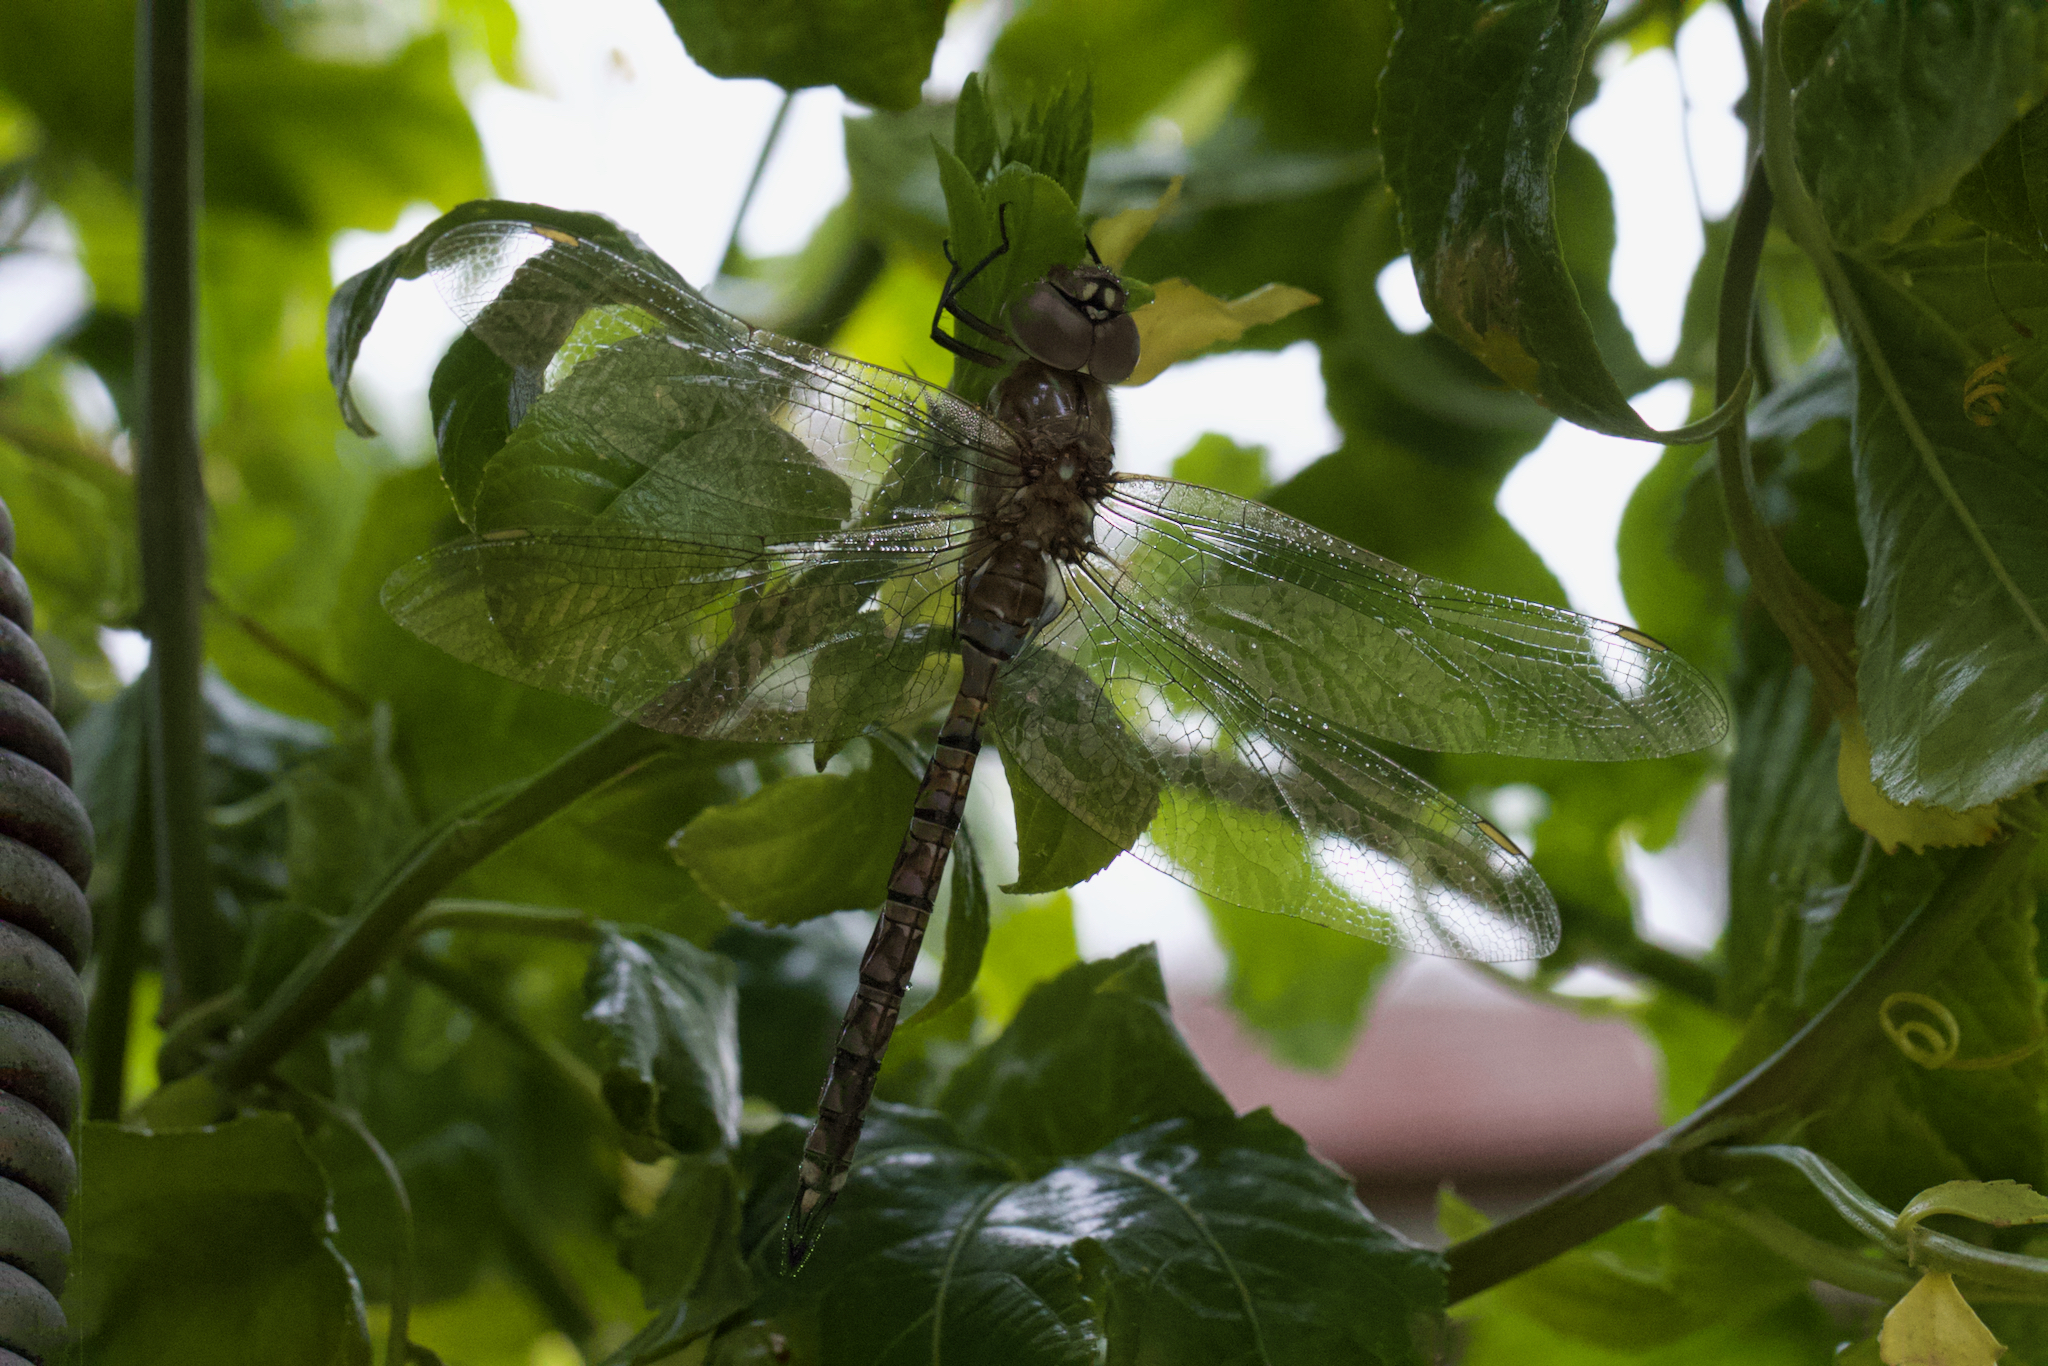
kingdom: Animalia
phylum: Arthropoda
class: Insecta
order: Odonata
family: Aeshnidae
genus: Rhionaeschna
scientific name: Rhionaeschna multicolor
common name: Blue-eyed darner
